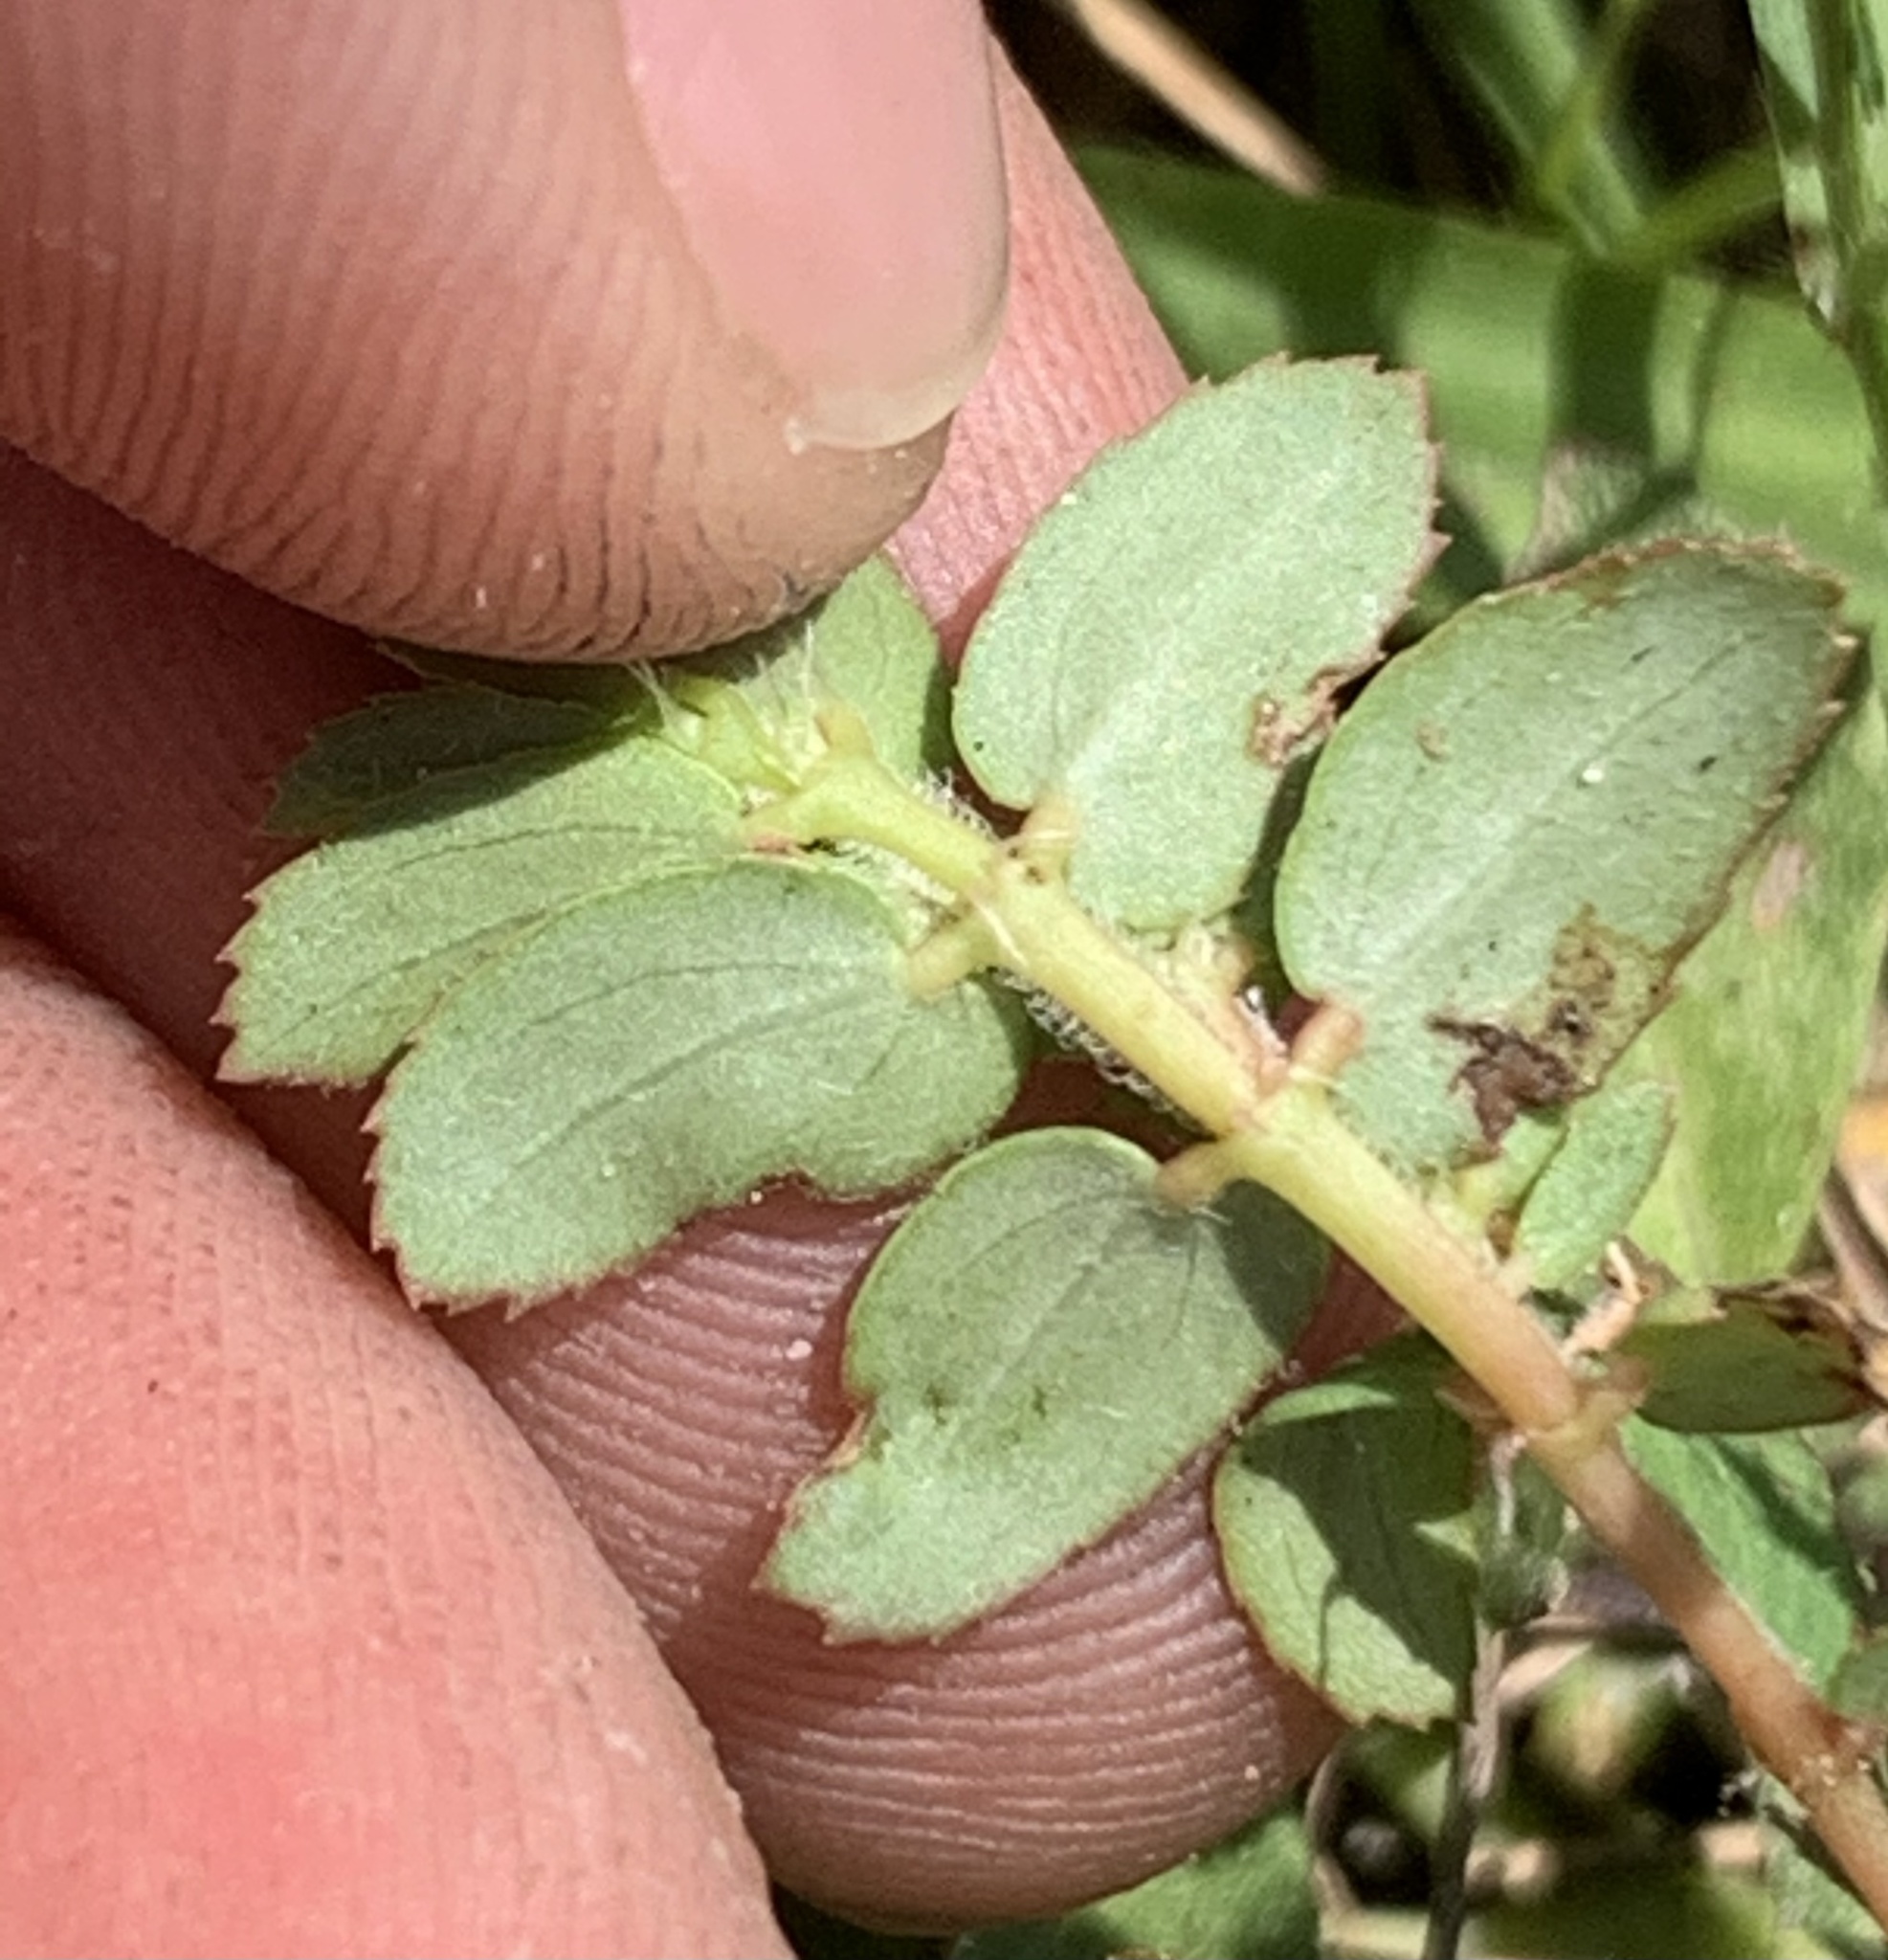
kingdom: Plantae
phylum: Tracheophyta
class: Magnoliopsida
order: Malpighiales
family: Euphorbiaceae
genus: Euphorbia
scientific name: Euphorbia thymifolia
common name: Gulf sandmat
